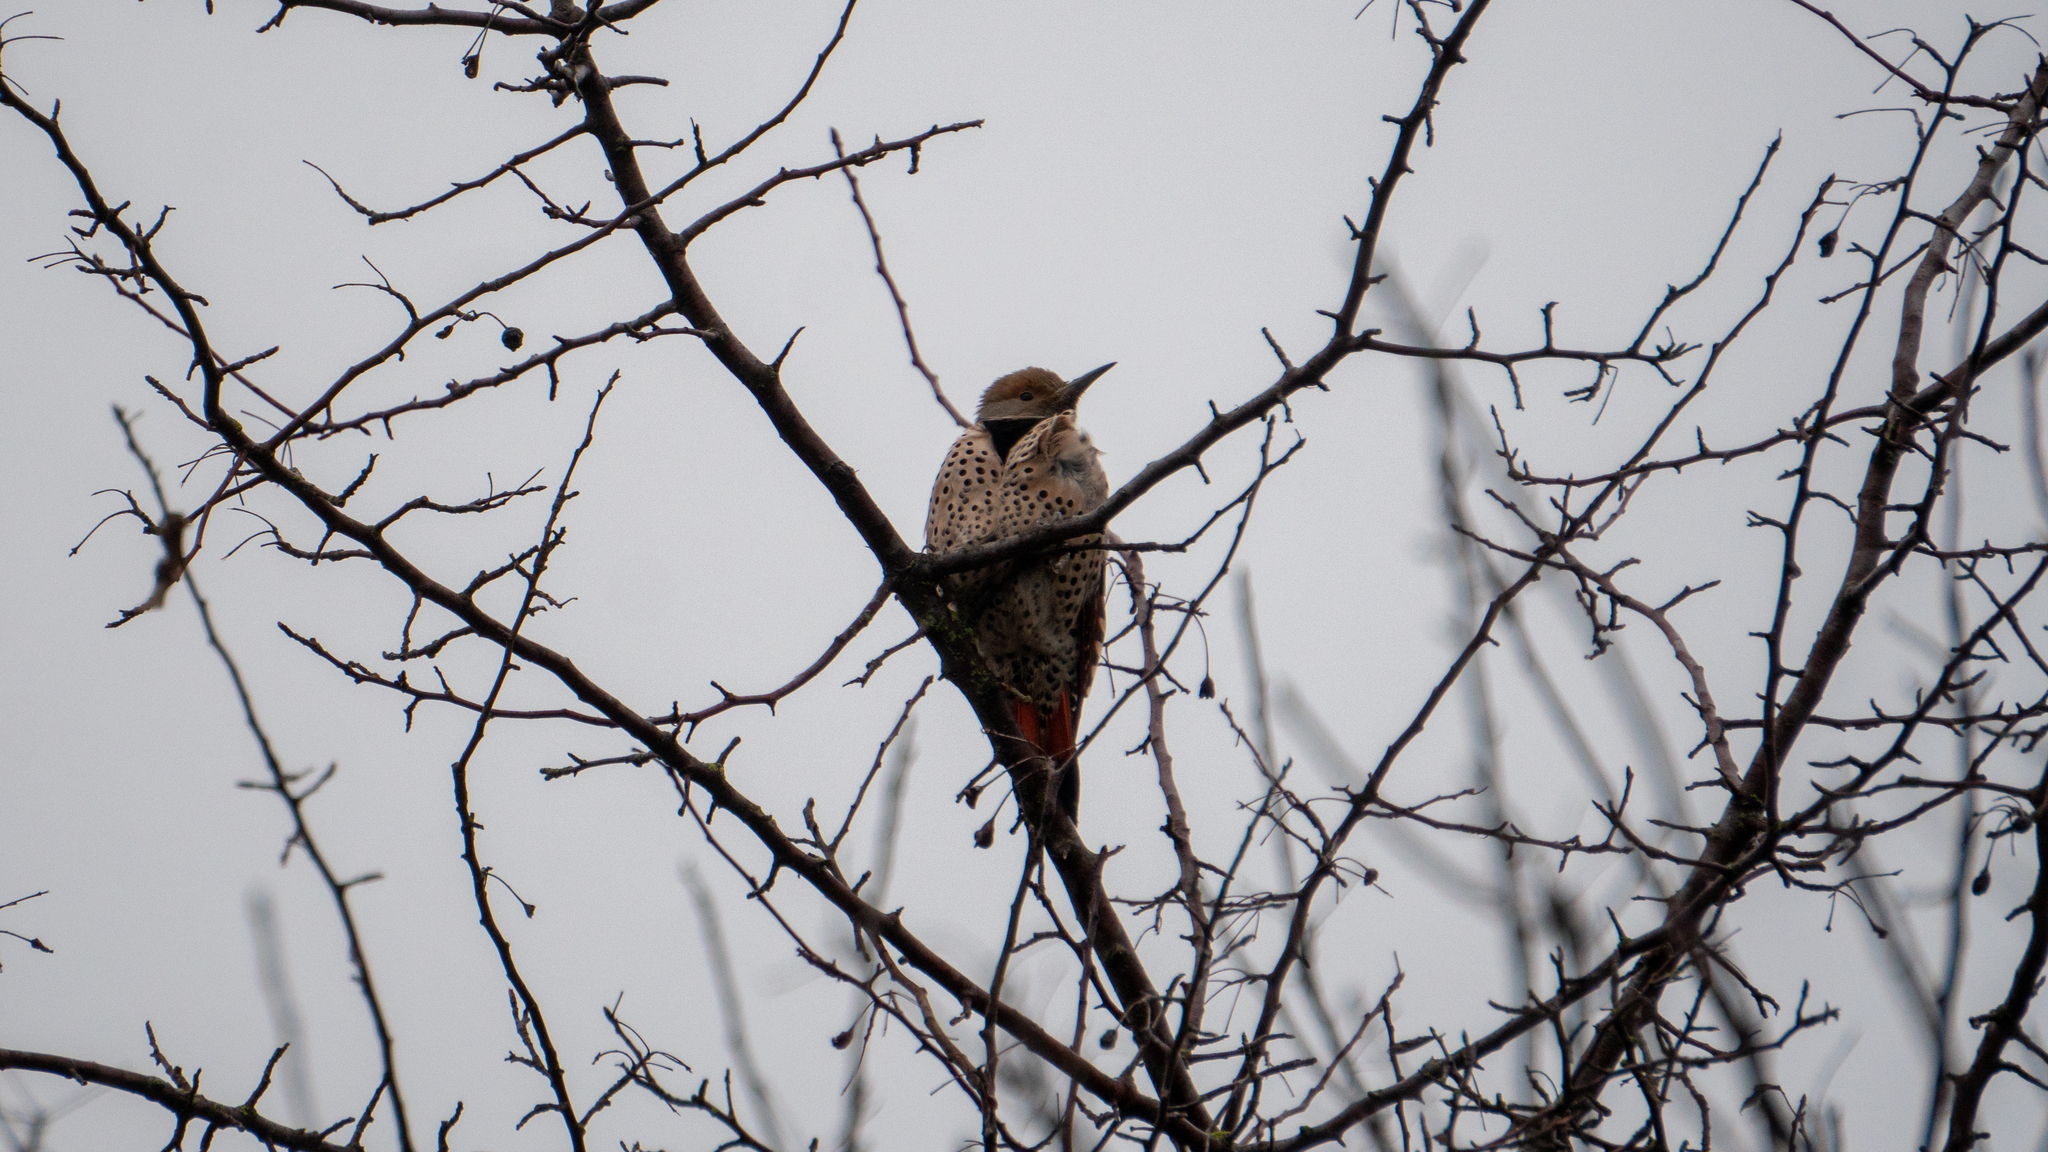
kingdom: Animalia
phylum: Chordata
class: Aves
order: Piciformes
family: Picidae
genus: Colaptes
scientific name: Colaptes auratus
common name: Northern flicker
